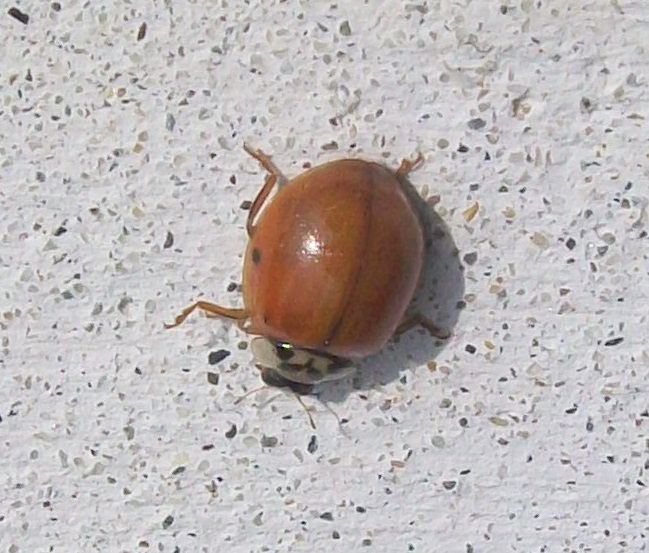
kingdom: Animalia
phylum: Arthropoda
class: Insecta
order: Coleoptera
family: Coccinellidae
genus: Harmonia
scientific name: Harmonia axyridis
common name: Harlequin ladybird
